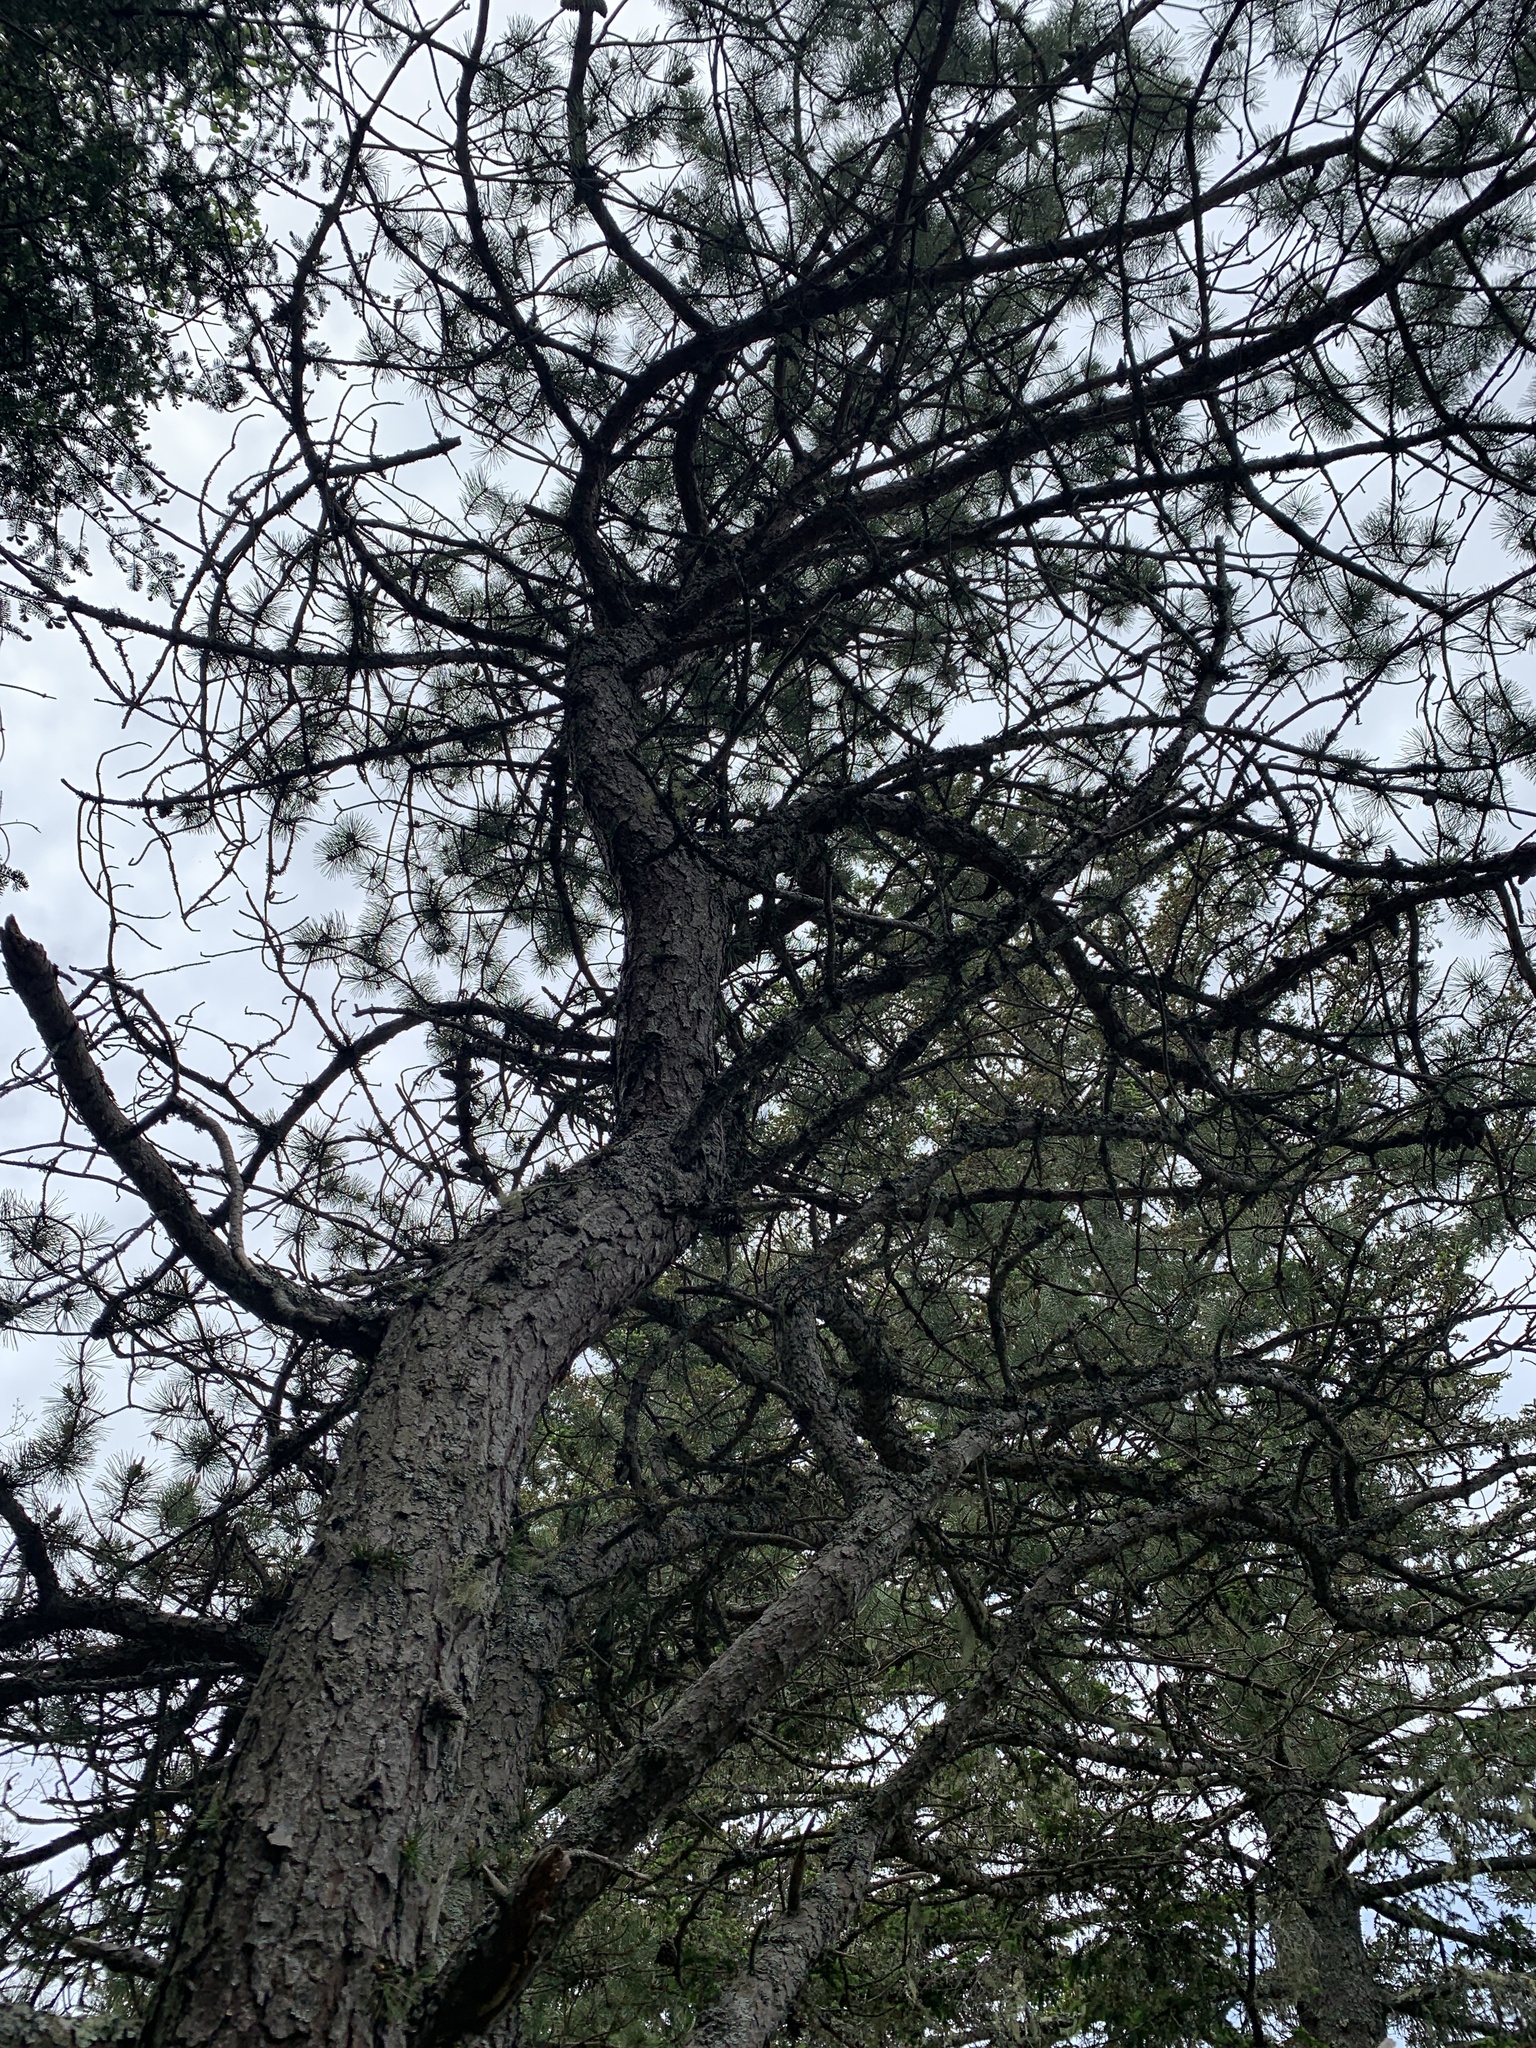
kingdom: Plantae
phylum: Tracheophyta
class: Pinopsida
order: Pinales
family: Pinaceae
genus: Pinus
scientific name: Pinus strobus
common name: Weymouth pine
